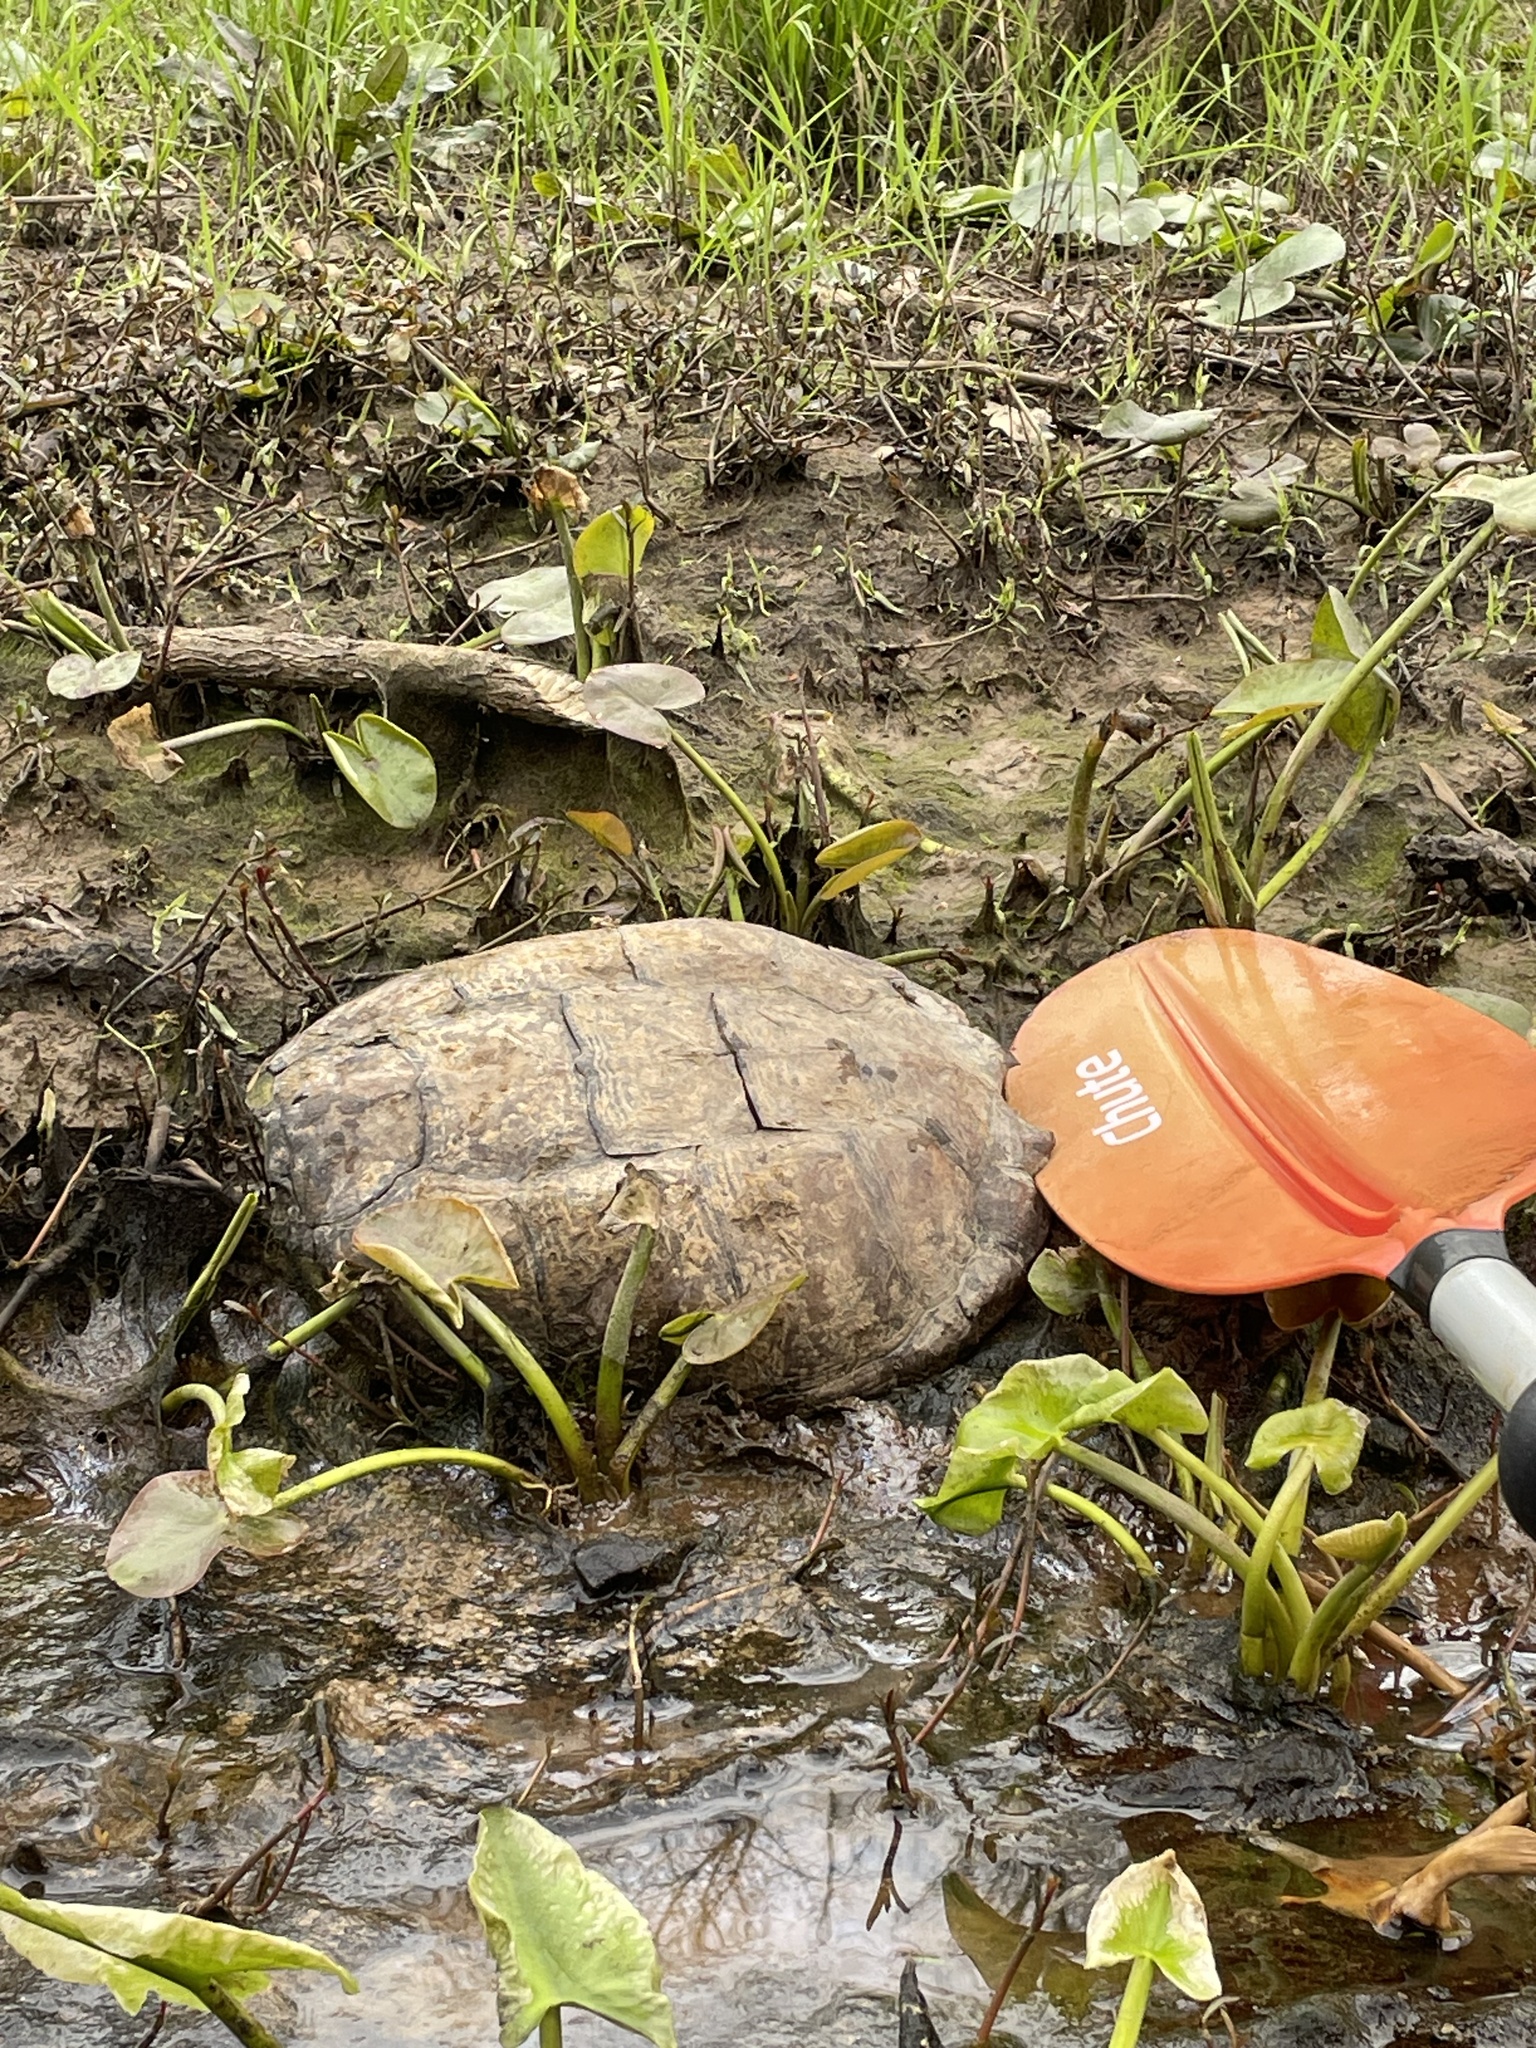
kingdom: Animalia
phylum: Chordata
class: Testudines
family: Chelydridae
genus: Chelydra
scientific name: Chelydra serpentina
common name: Common snapping turtle
